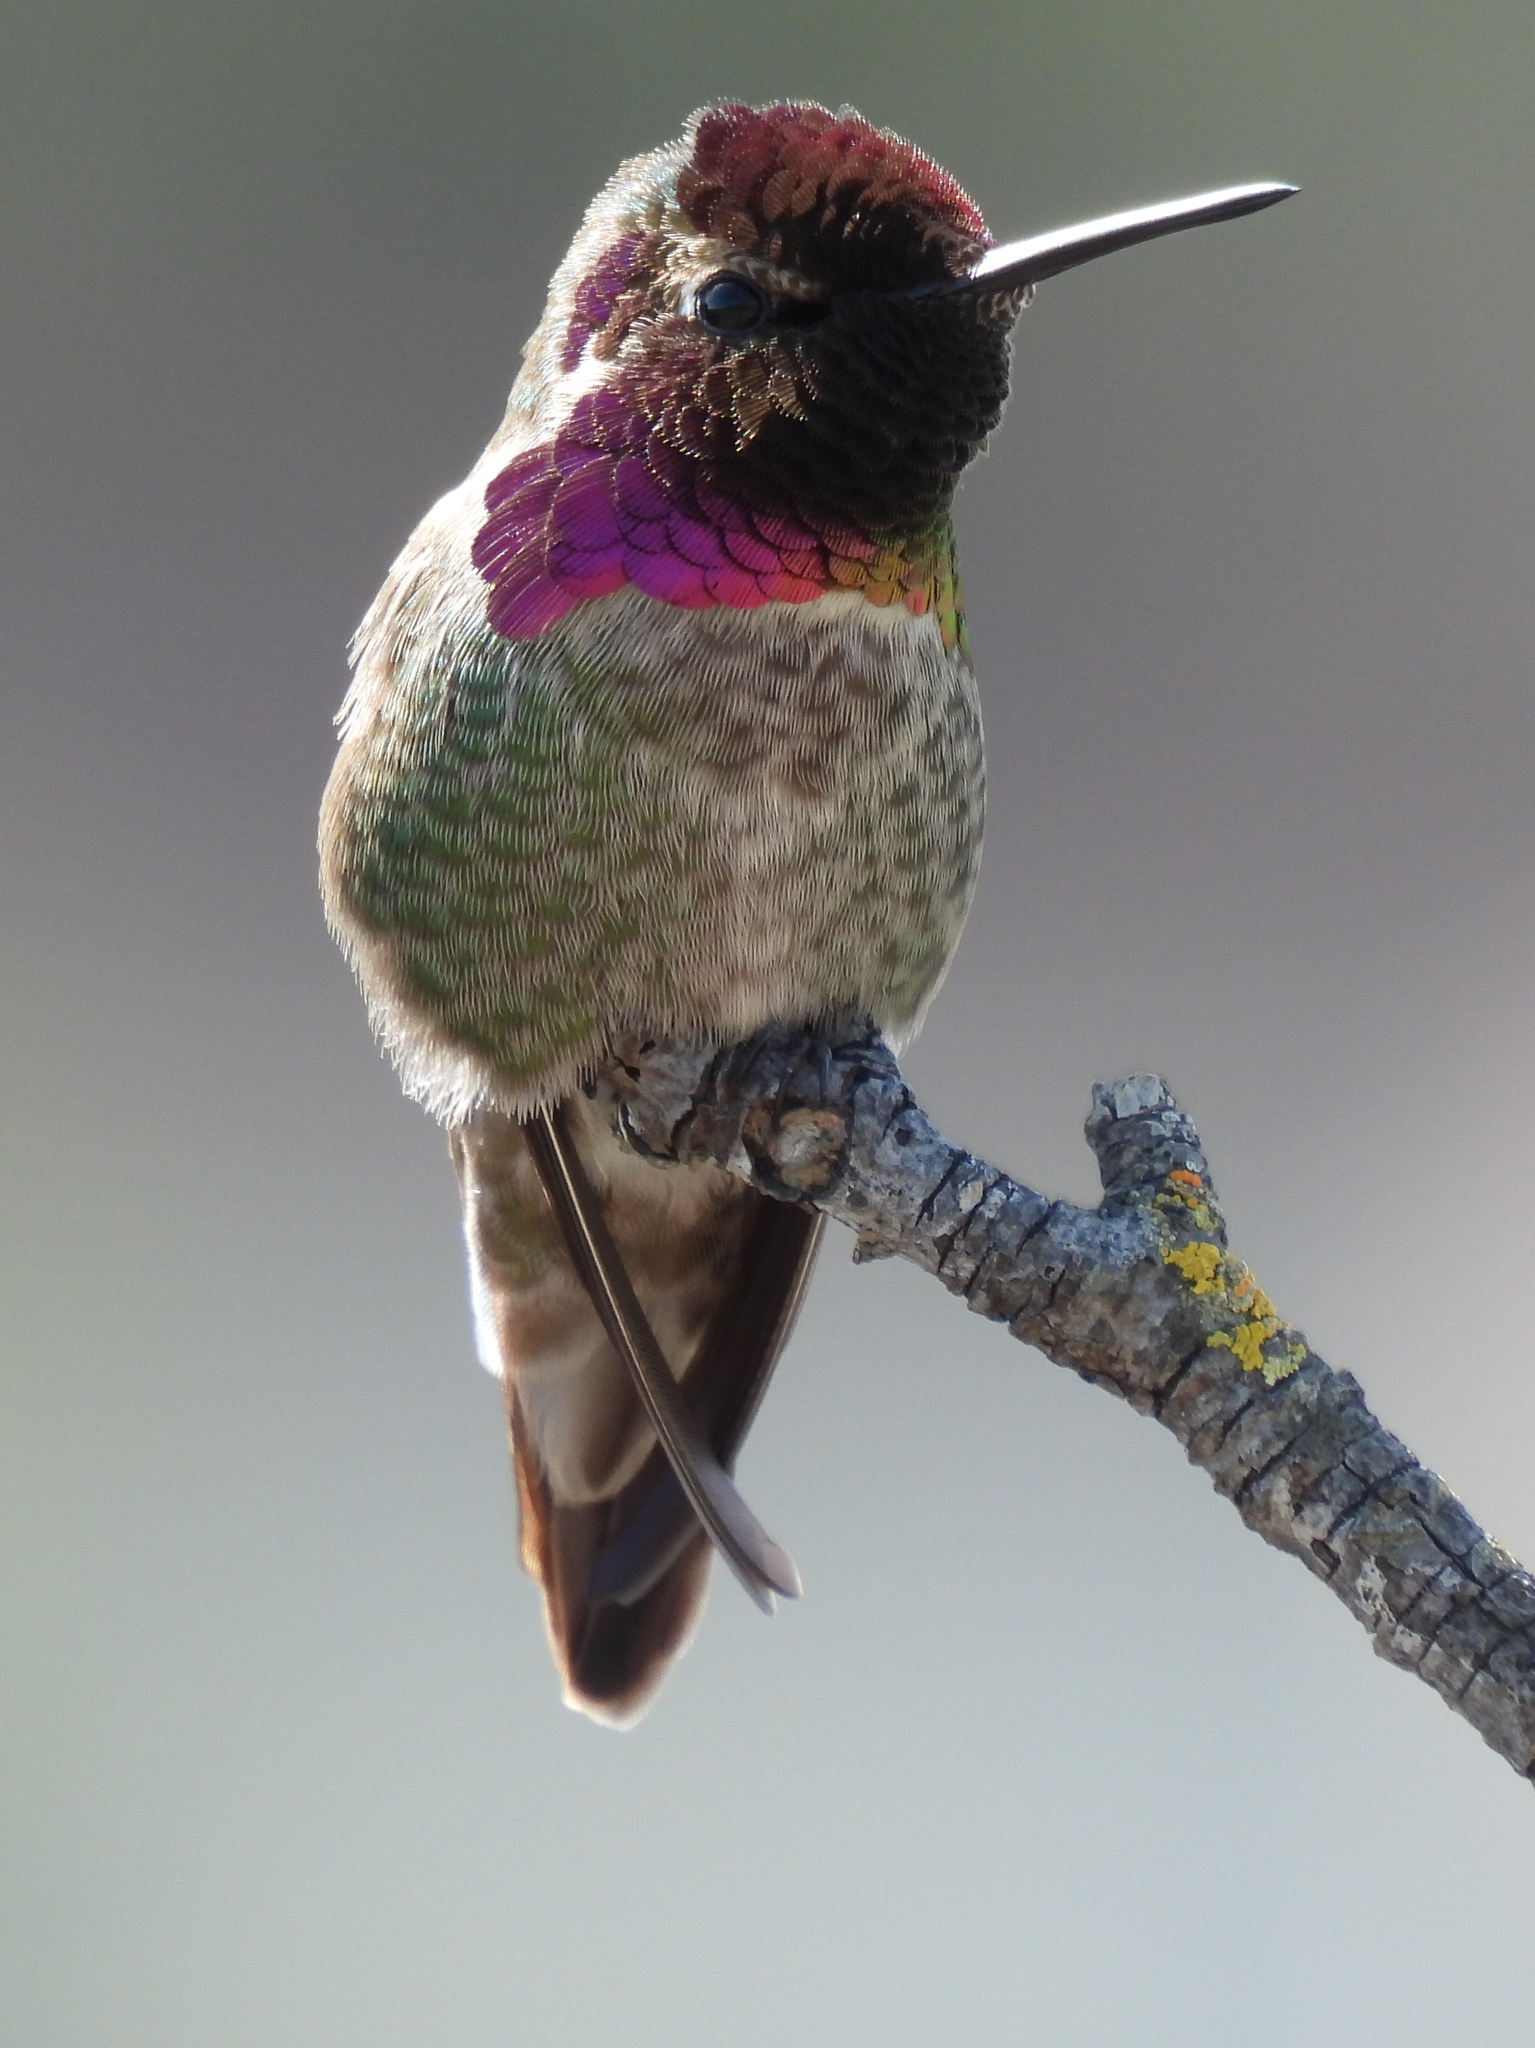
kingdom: Animalia
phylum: Chordata
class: Aves
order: Apodiformes
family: Trochilidae
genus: Calypte
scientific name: Calypte anna
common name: Anna's hummingbird
